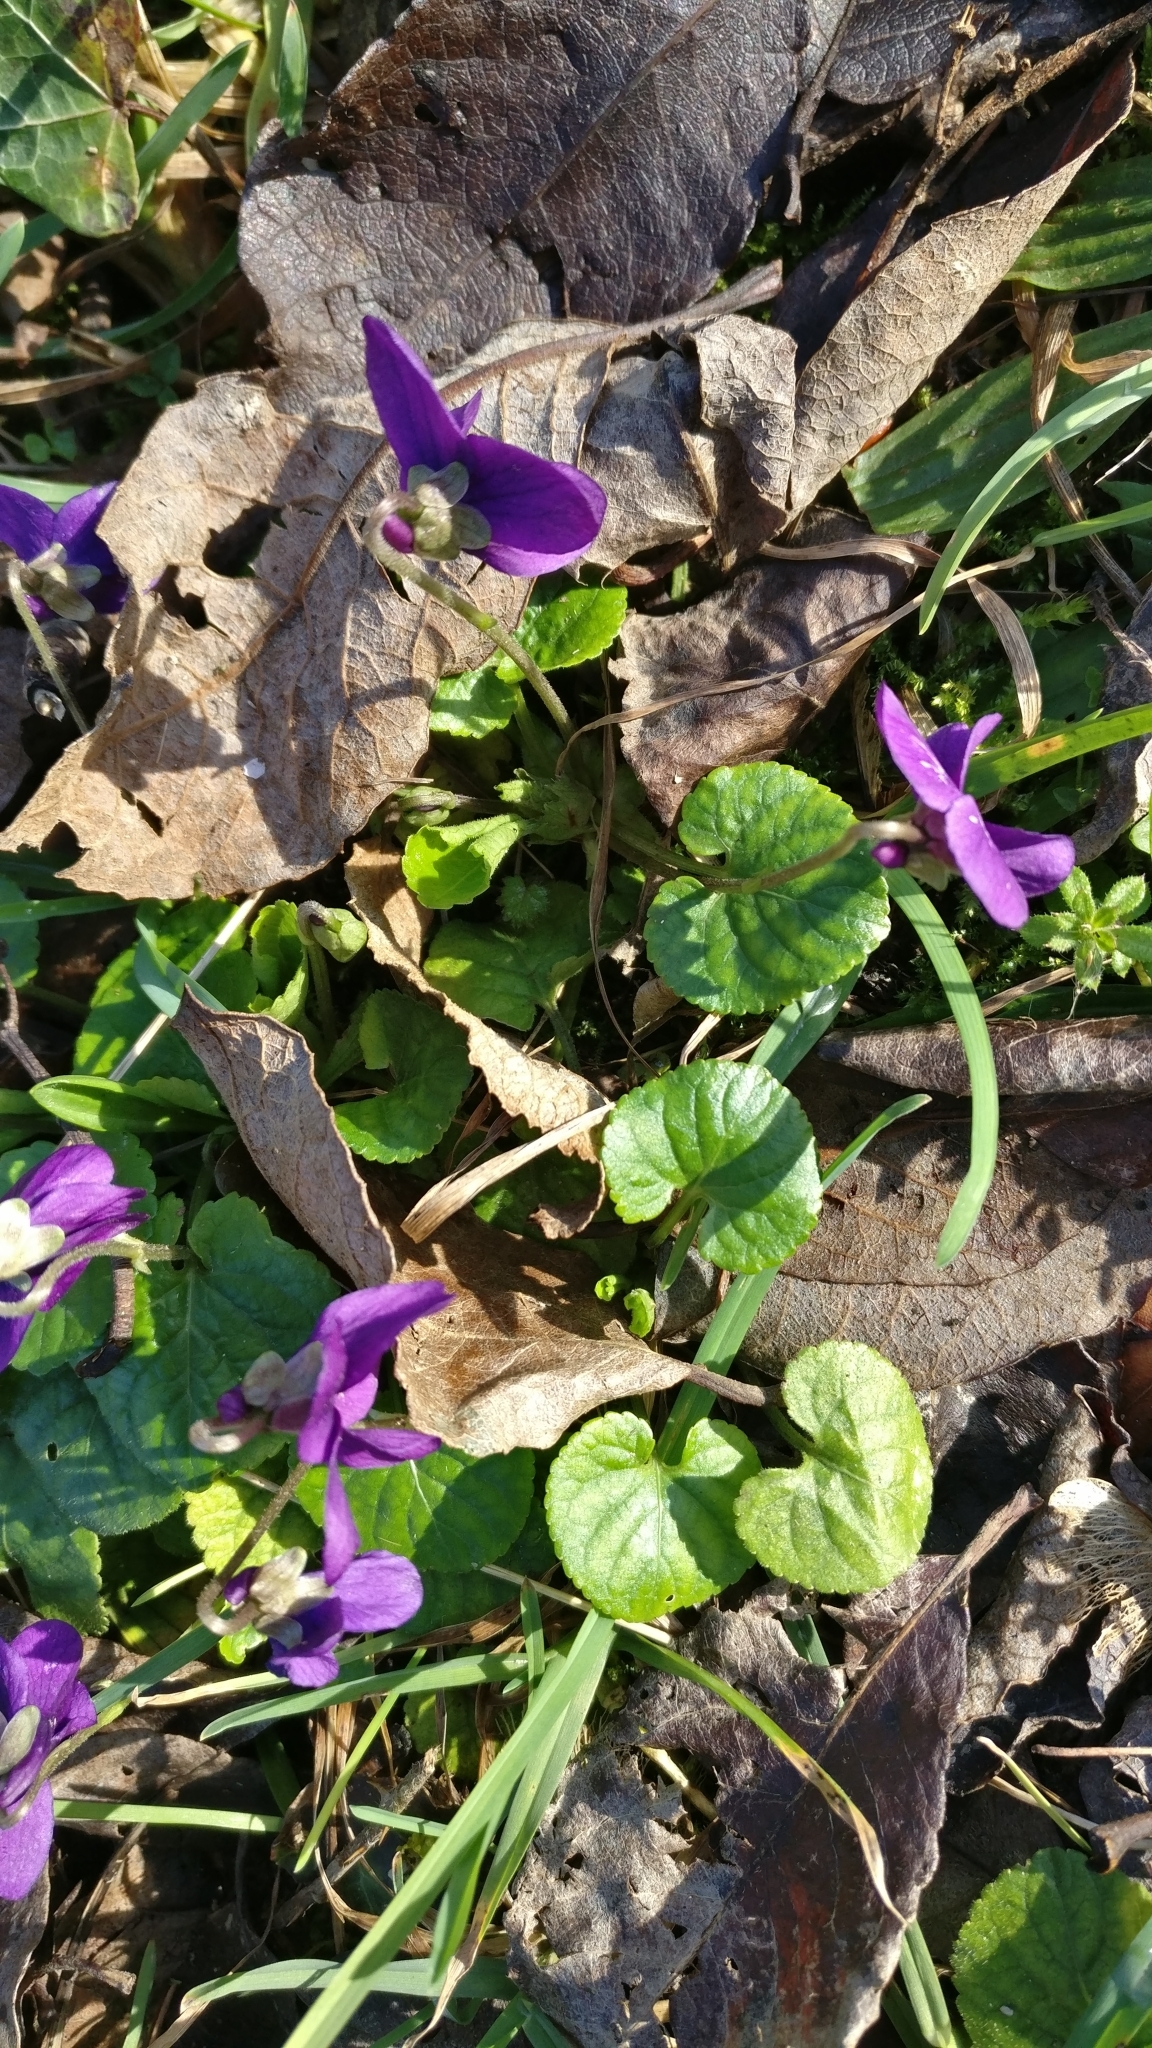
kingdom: Plantae
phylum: Tracheophyta
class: Magnoliopsida
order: Malpighiales
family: Violaceae
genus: Viola
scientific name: Viola odorata
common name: Sweet violet
